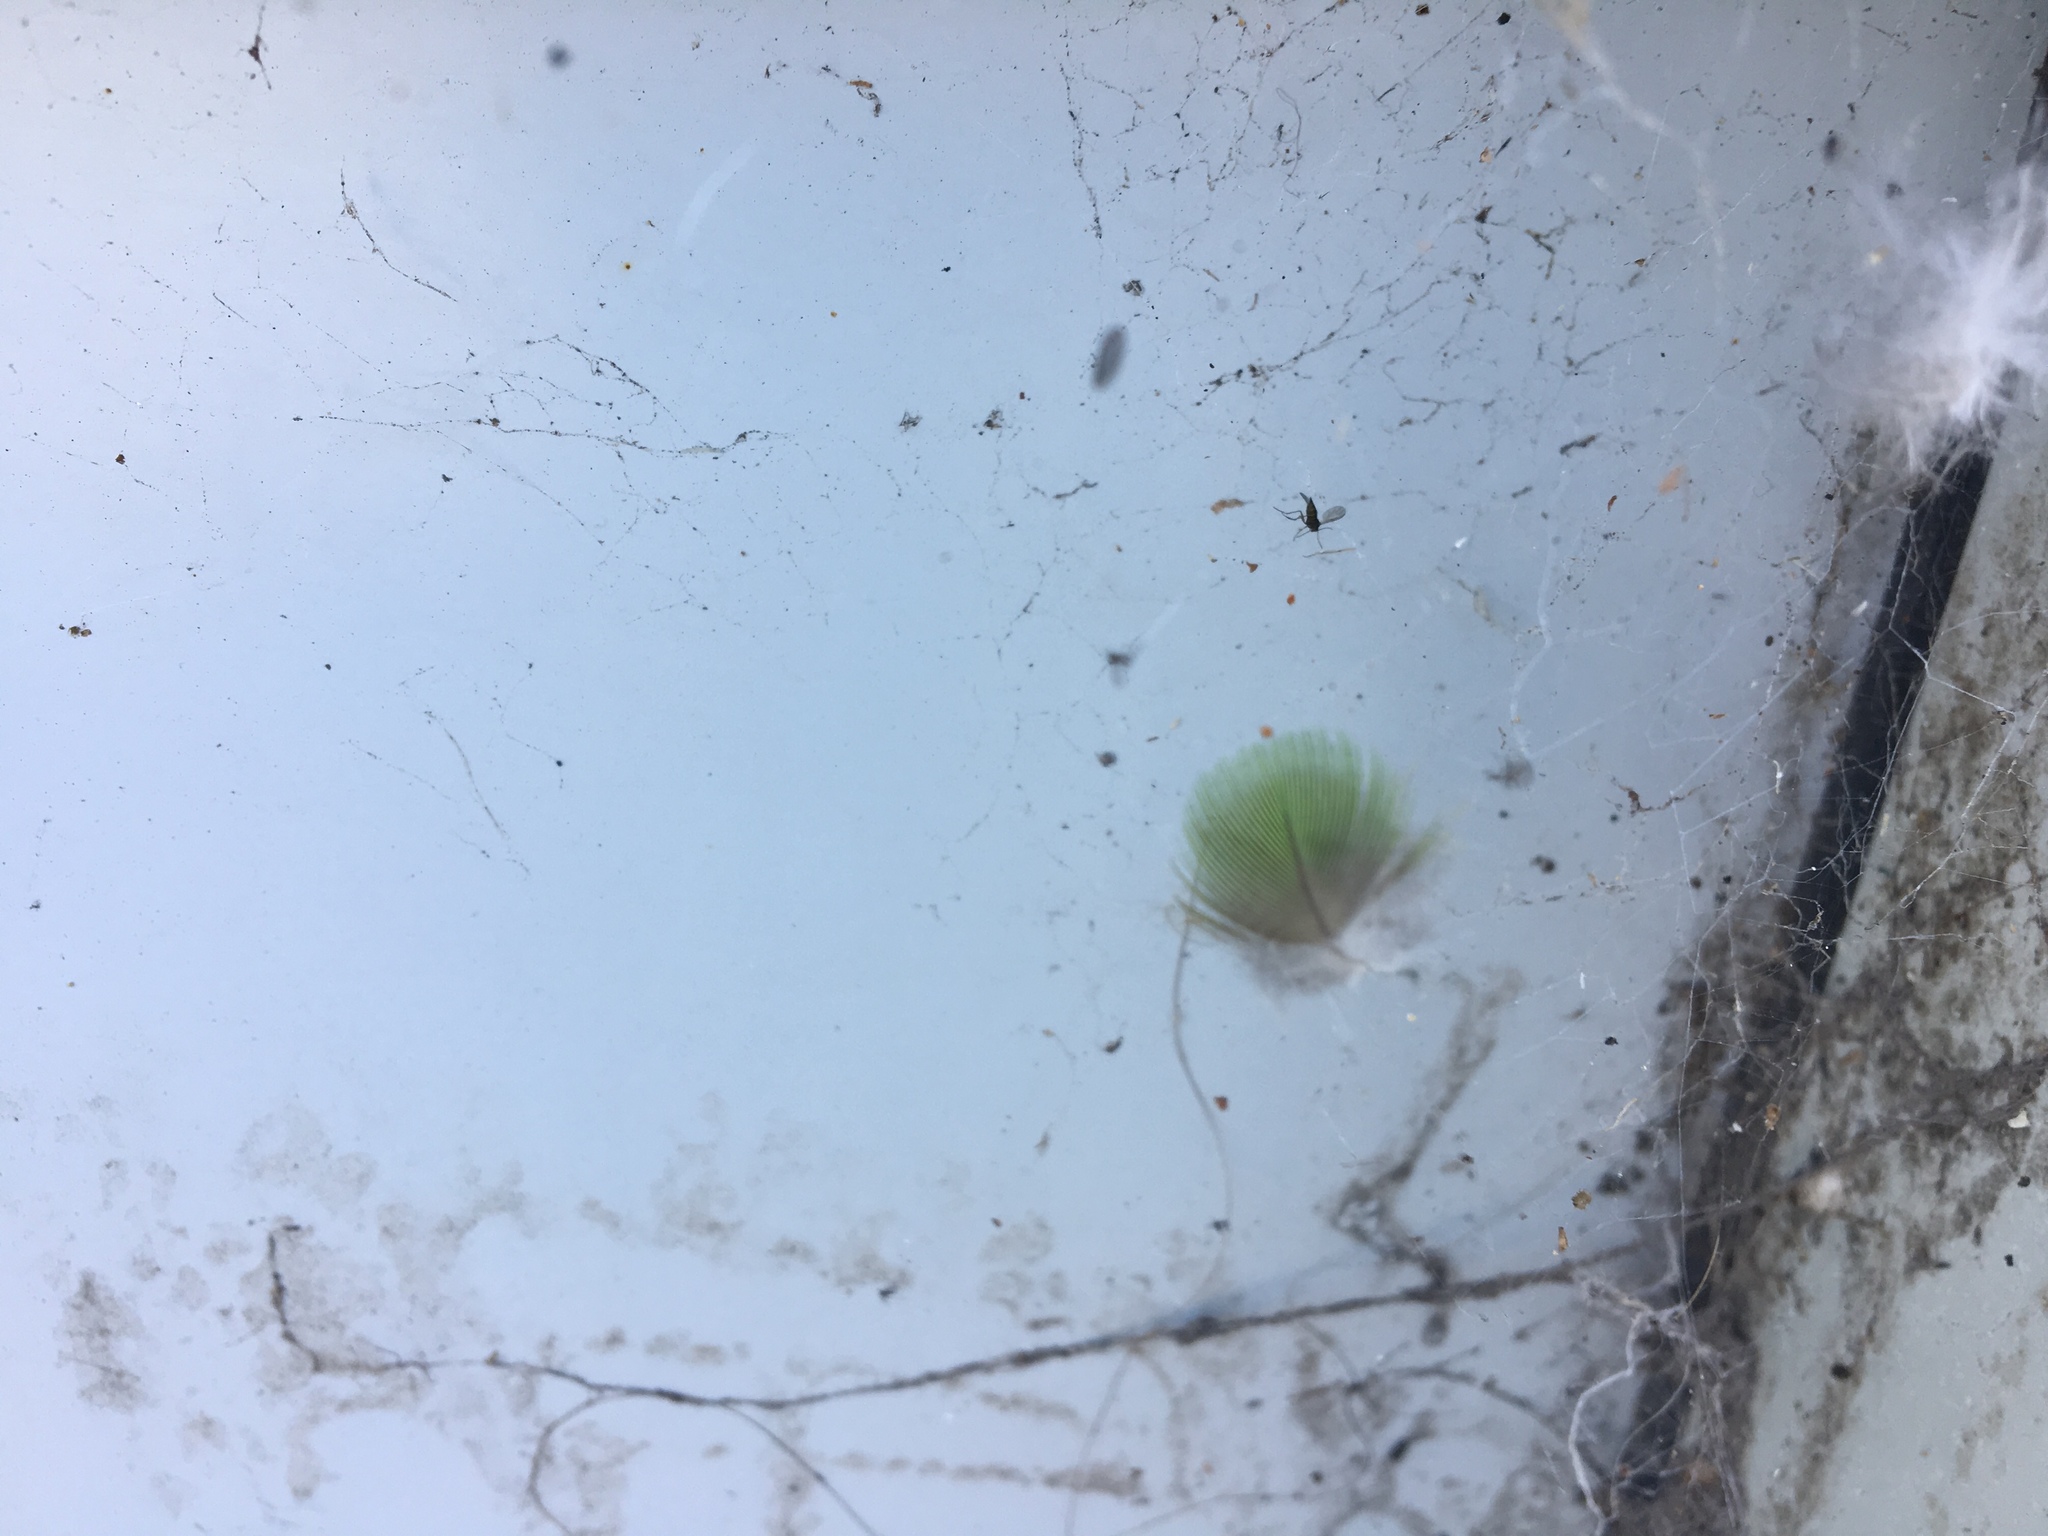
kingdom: Animalia
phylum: Chordata
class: Aves
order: Psittaciformes
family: Psittacidae
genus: Trichoglossus
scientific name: Trichoglossus haematodus
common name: Coconut lorikeet
